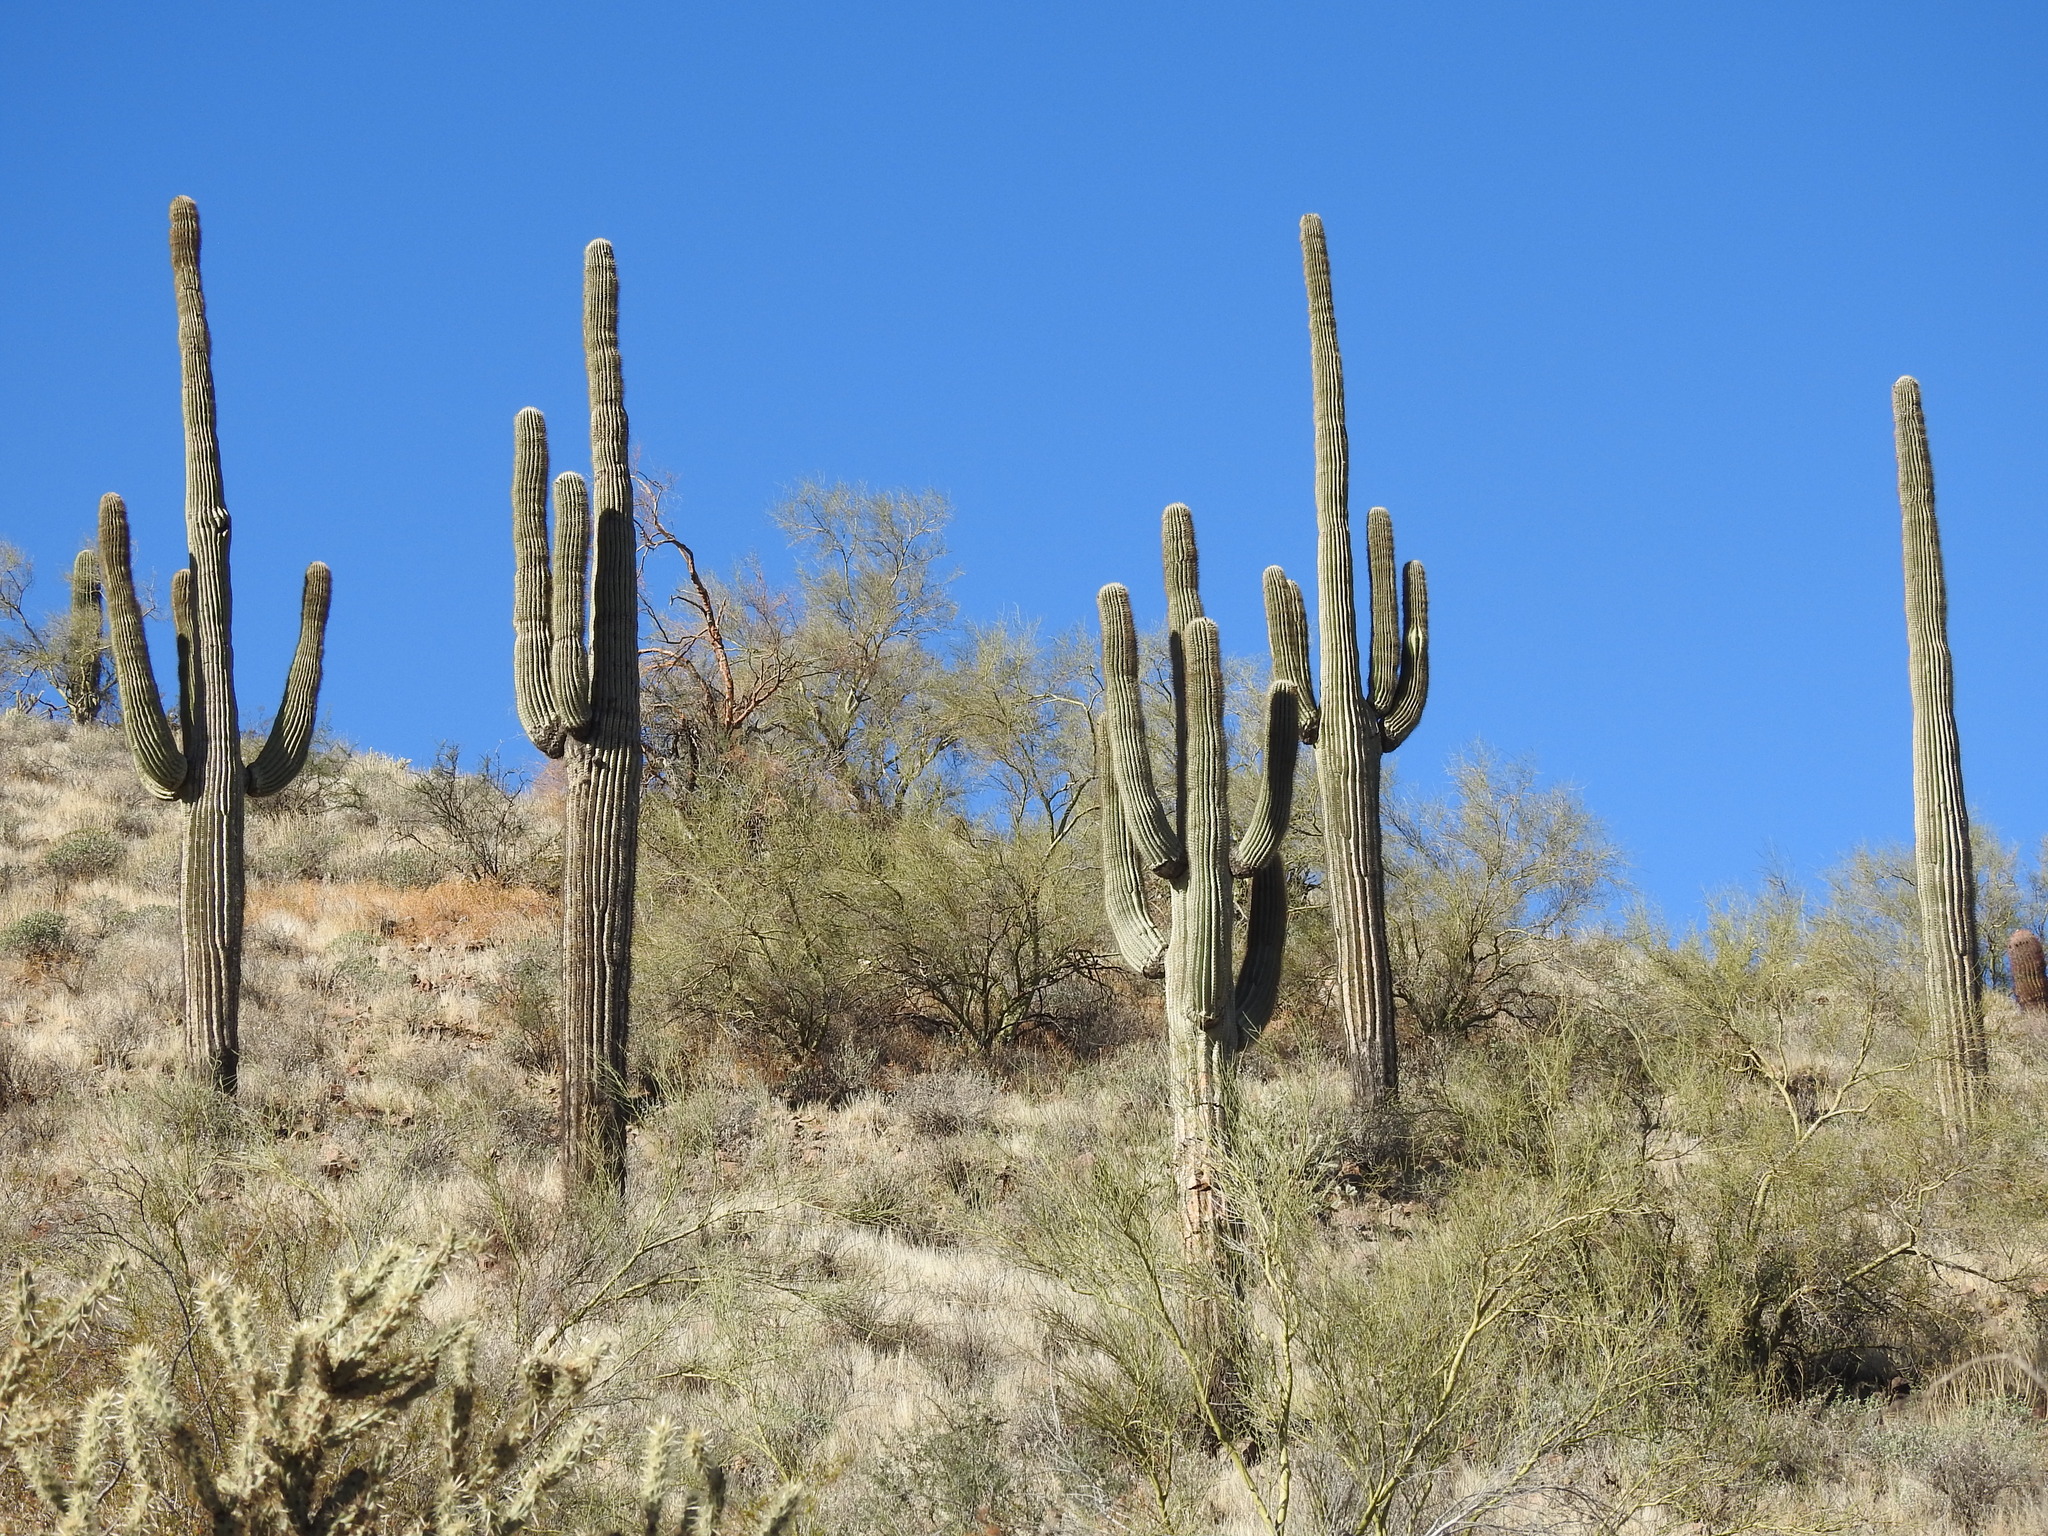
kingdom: Plantae
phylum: Tracheophyta
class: Magnoliopsida
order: Caryophyllales
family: Cactaceae
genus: Carnegiea
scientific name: Carnegiea gigantea
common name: Saguaro
